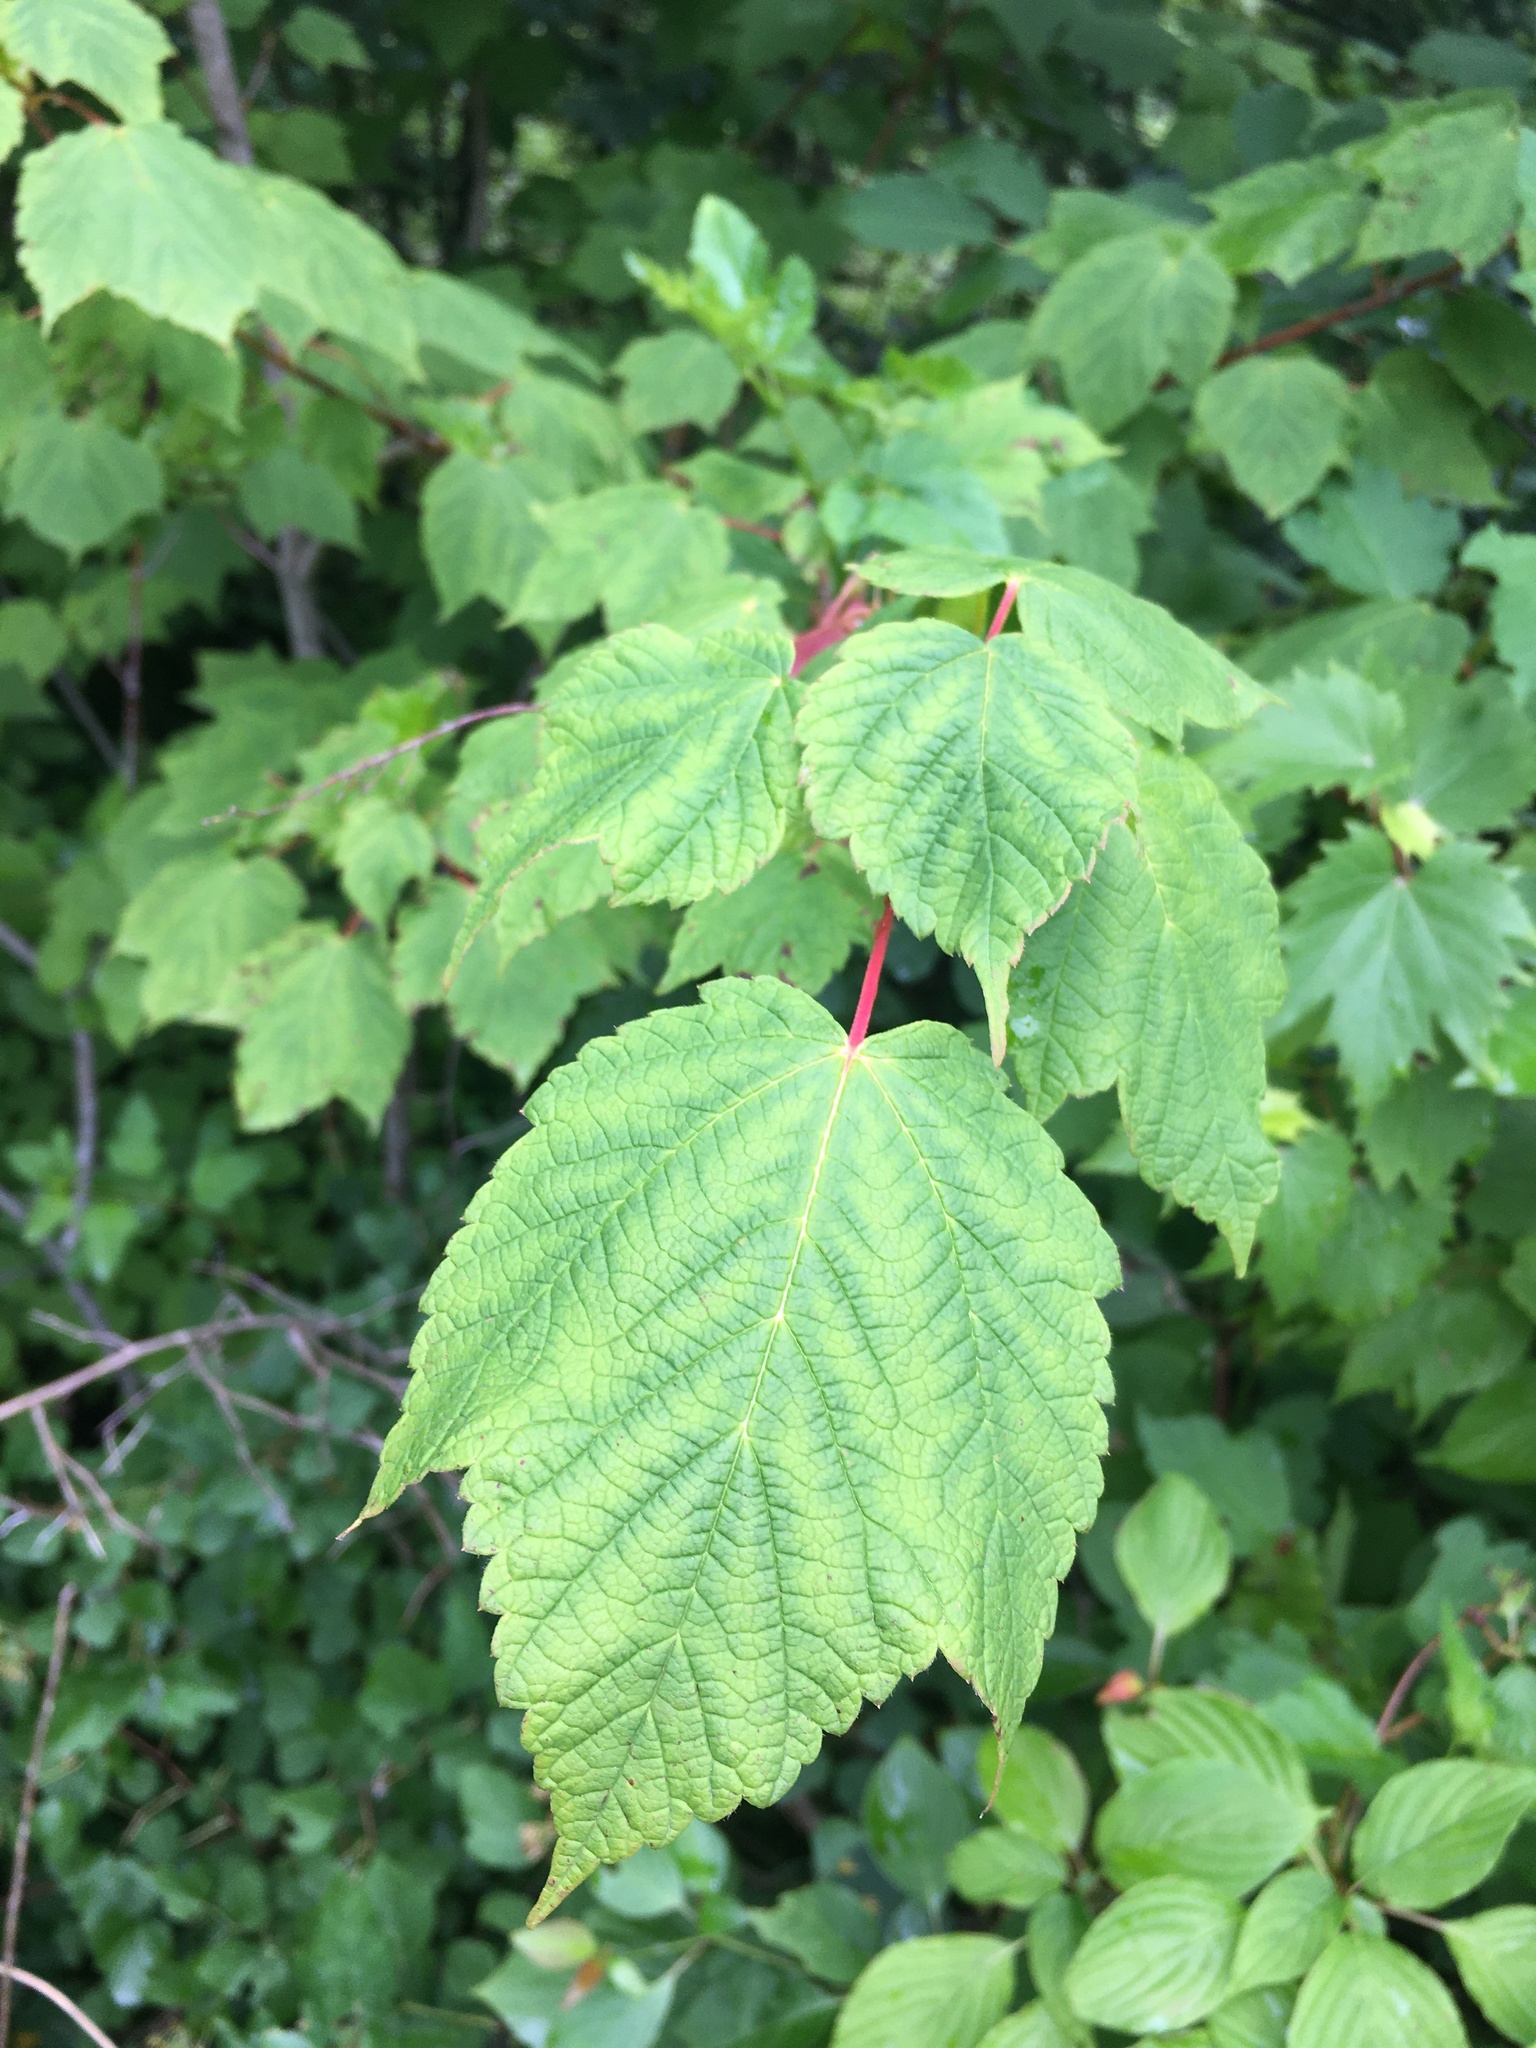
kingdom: Plantae
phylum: Tracheophyta
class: Magnoliopsida
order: Sapindales
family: Sapindaceae
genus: Acer
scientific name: Acer spicatum
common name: Mountain maple
